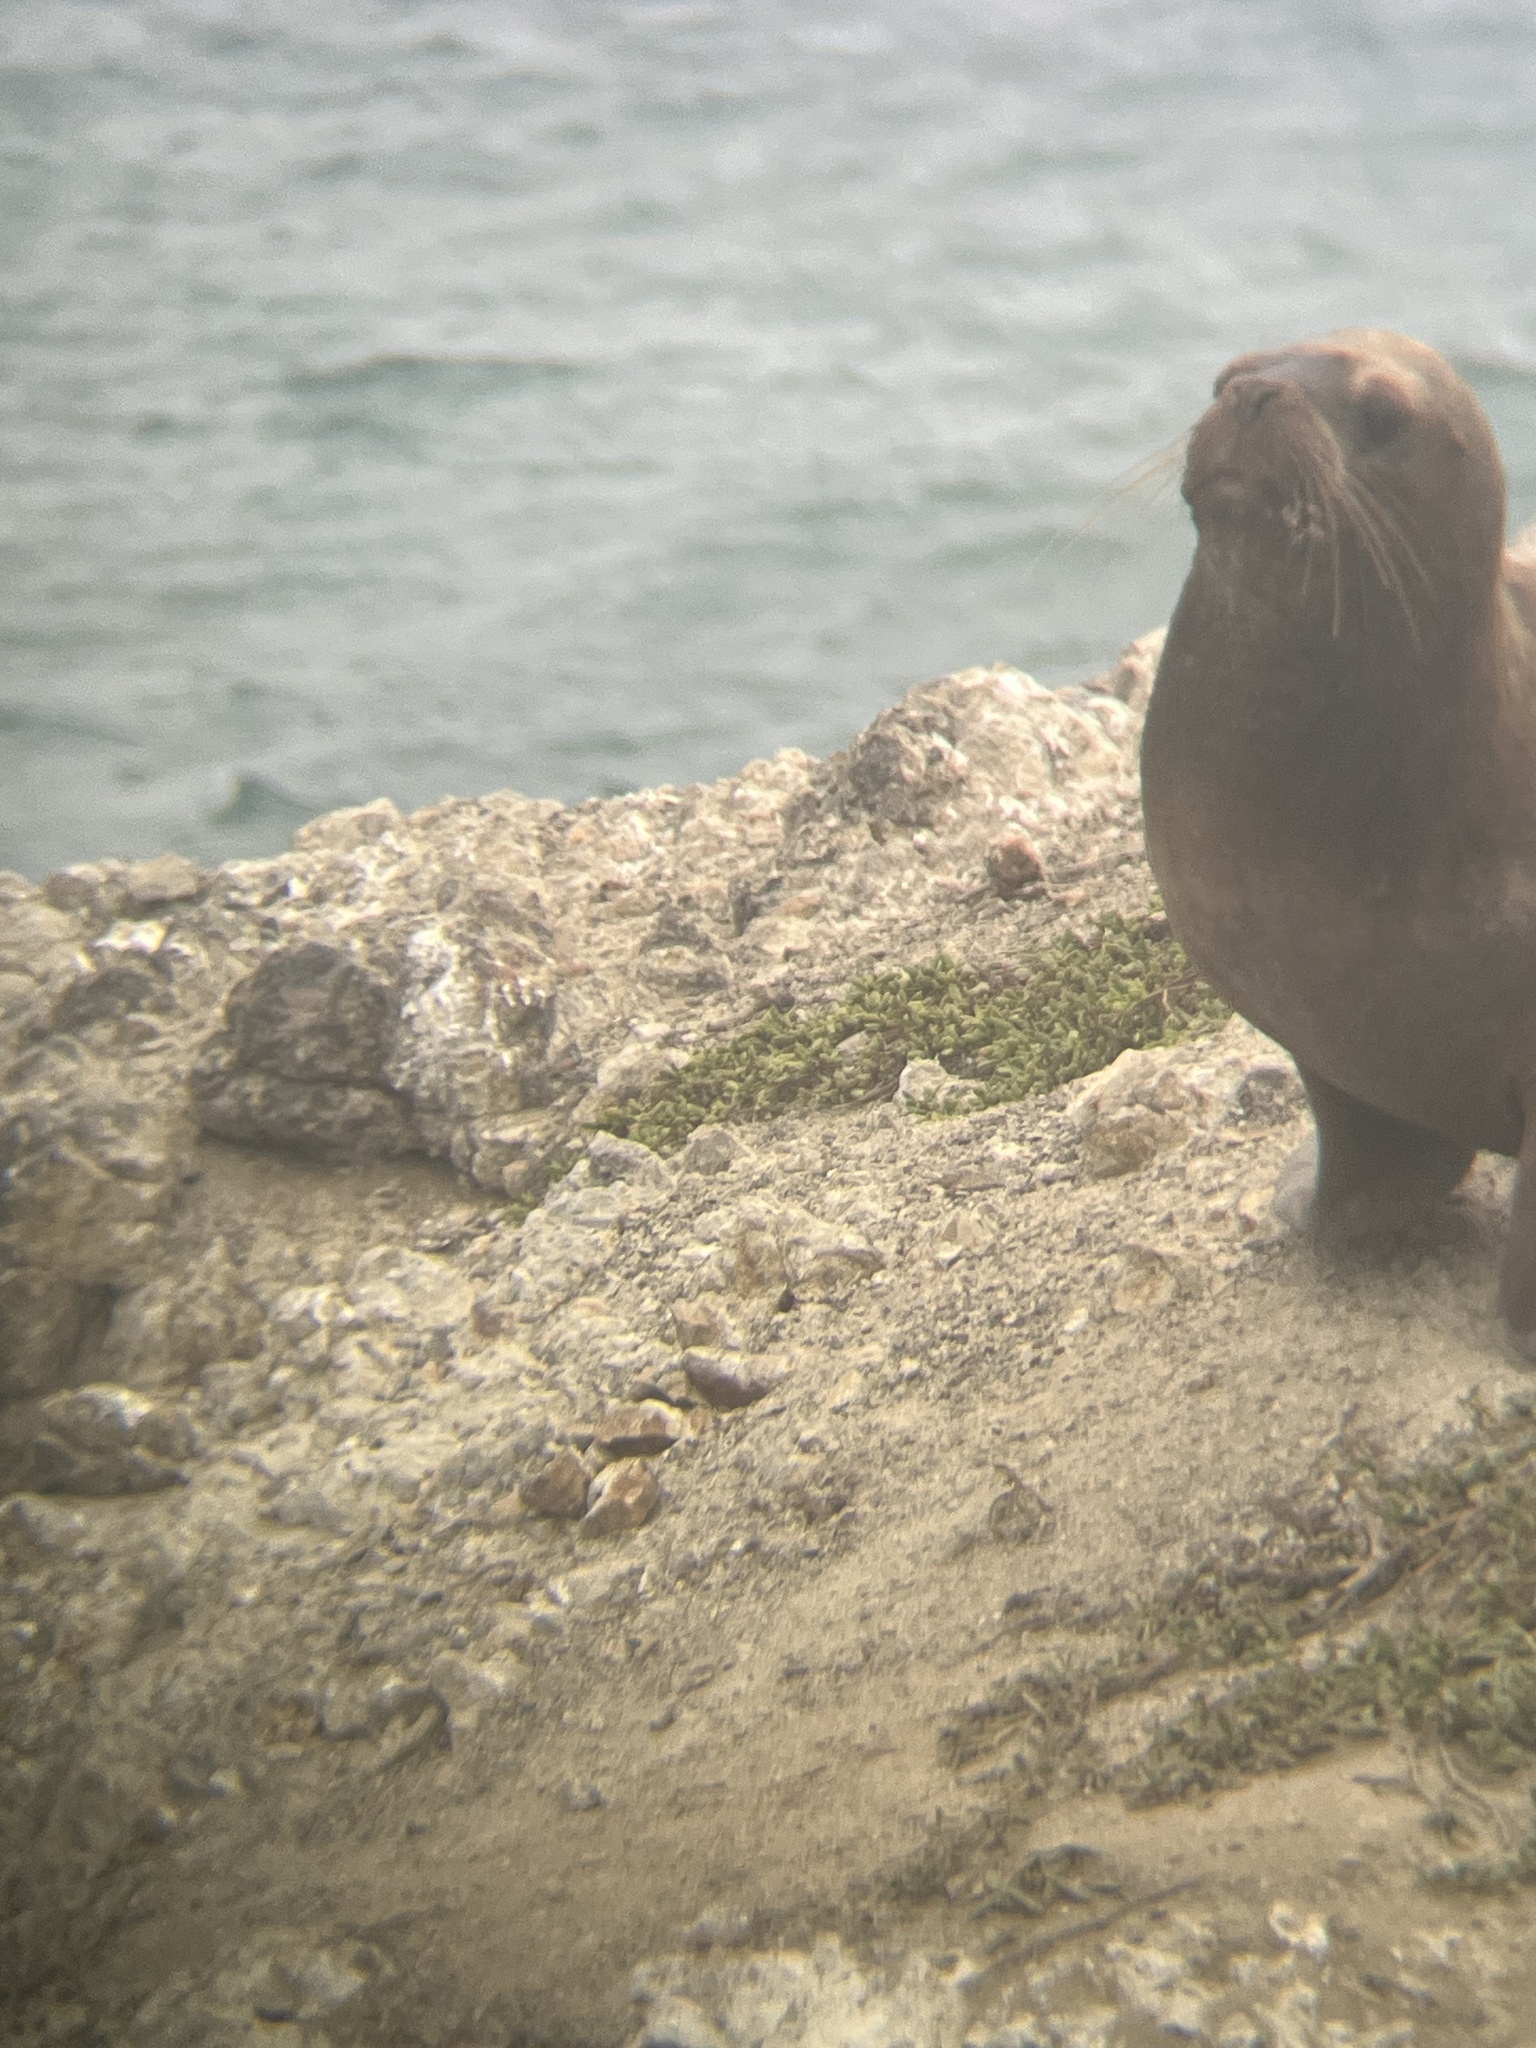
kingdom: Animalia
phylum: Chordata
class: Mammalia
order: Carnivora
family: Otariidae
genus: Otaria
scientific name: Otaria byronia
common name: South american sea lion
